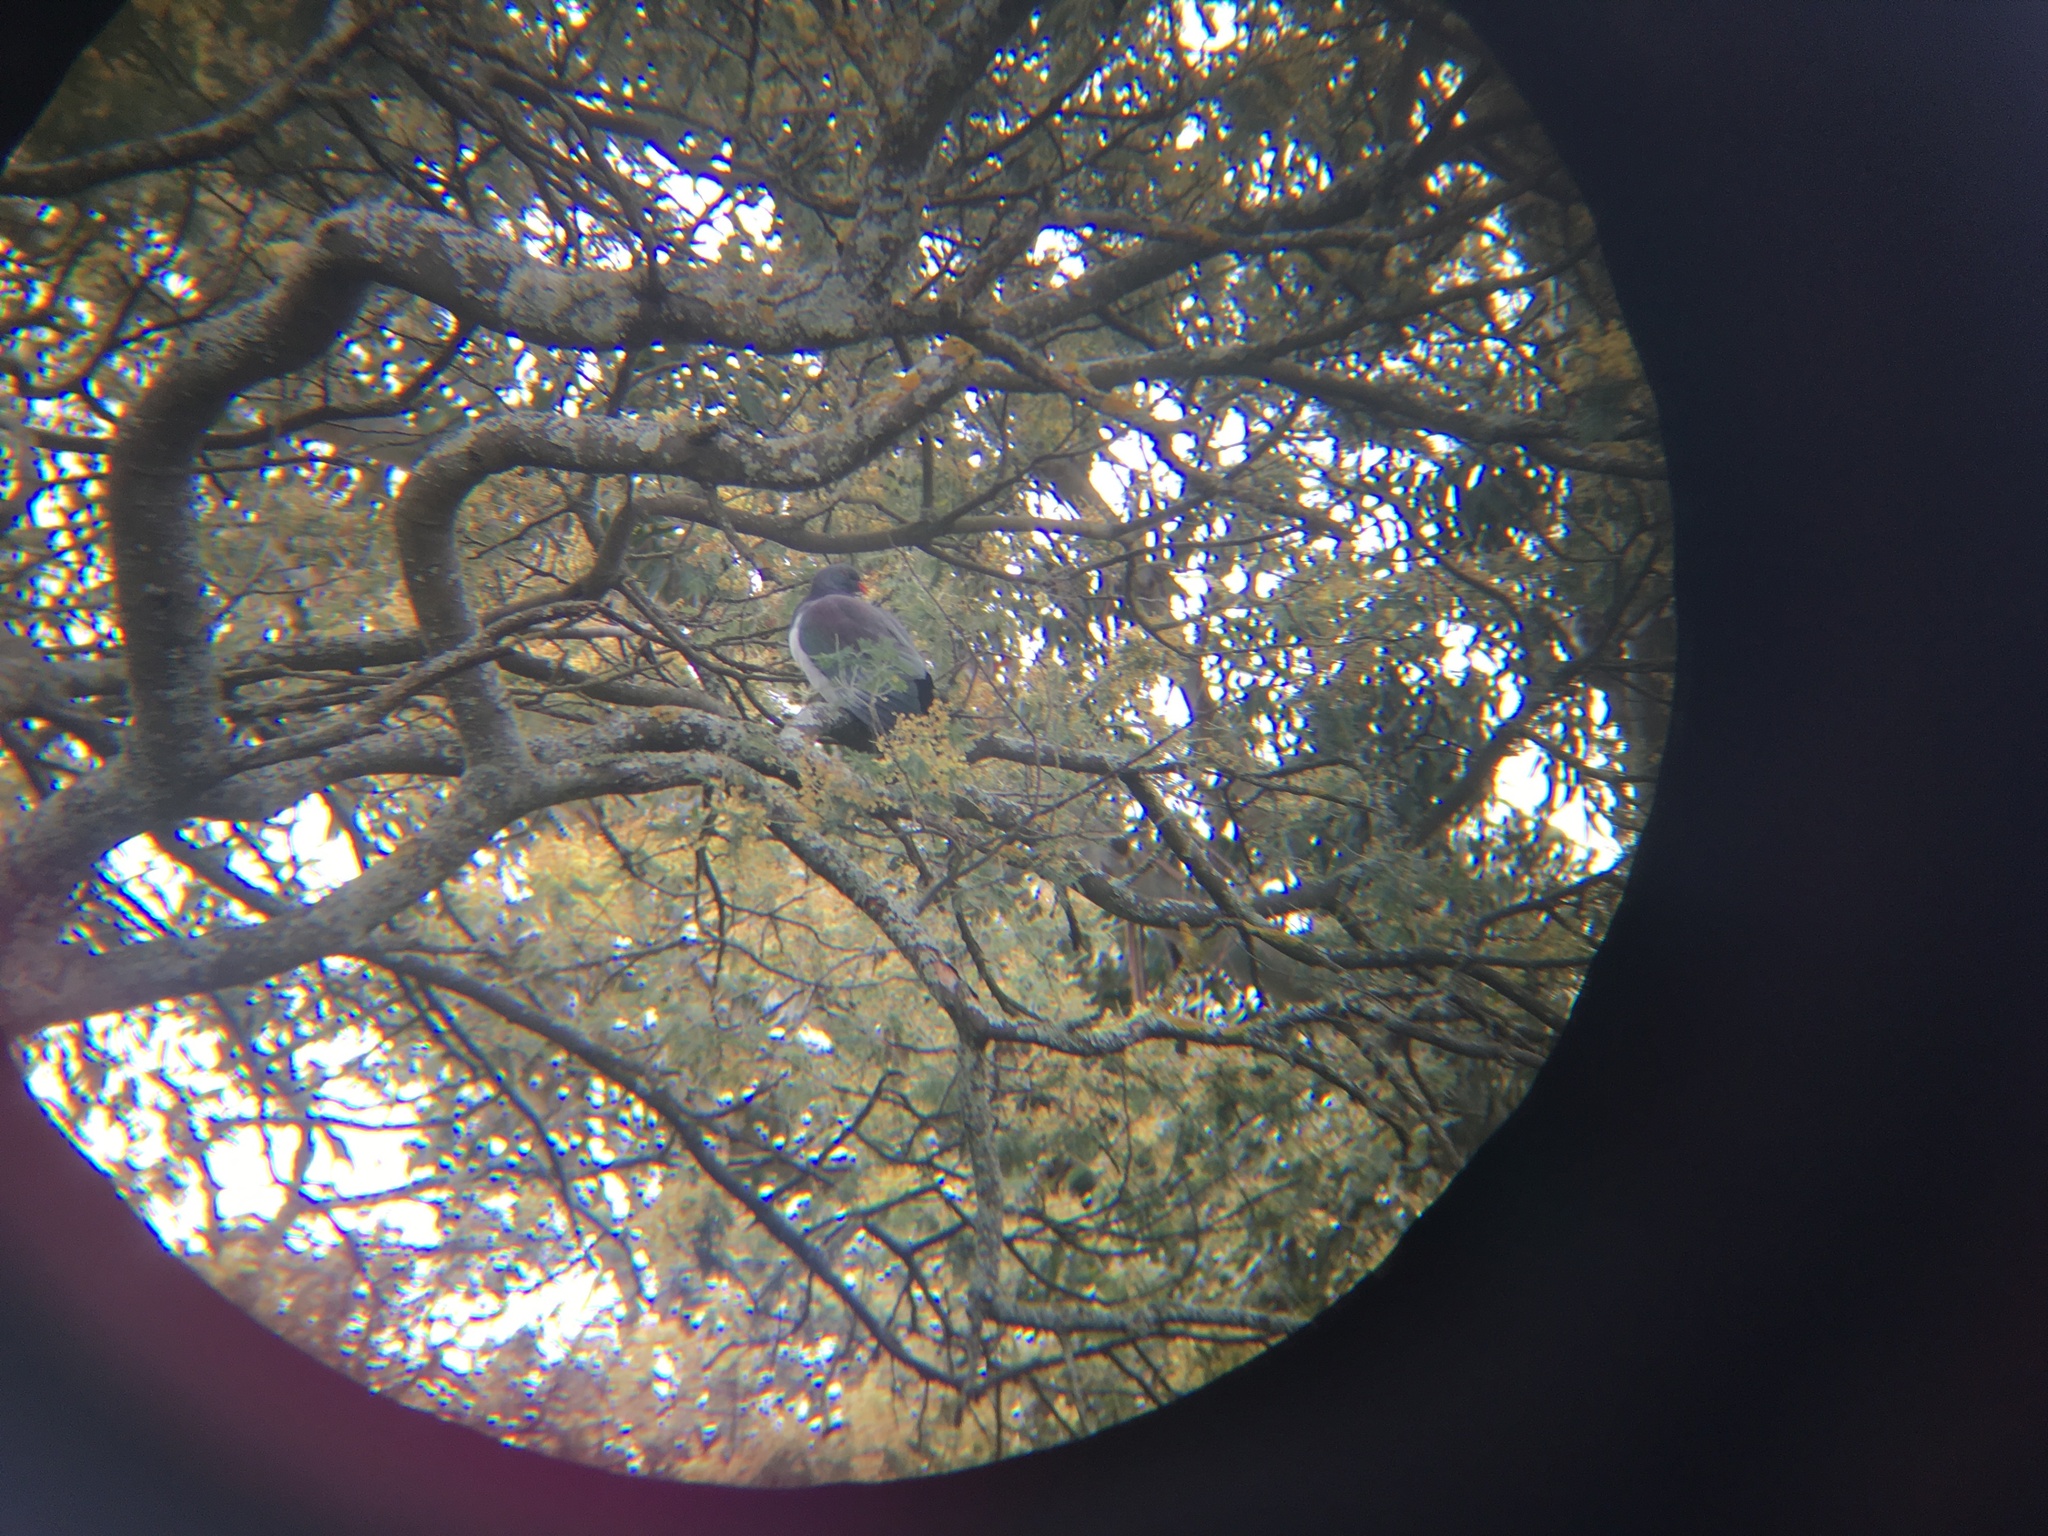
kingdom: Animalia
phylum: Chordata
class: Aves
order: Columbiformes
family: Columbidae
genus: Hemiphaga
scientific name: Hemiphaga novaeseelandiae
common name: New zealand pigeon
